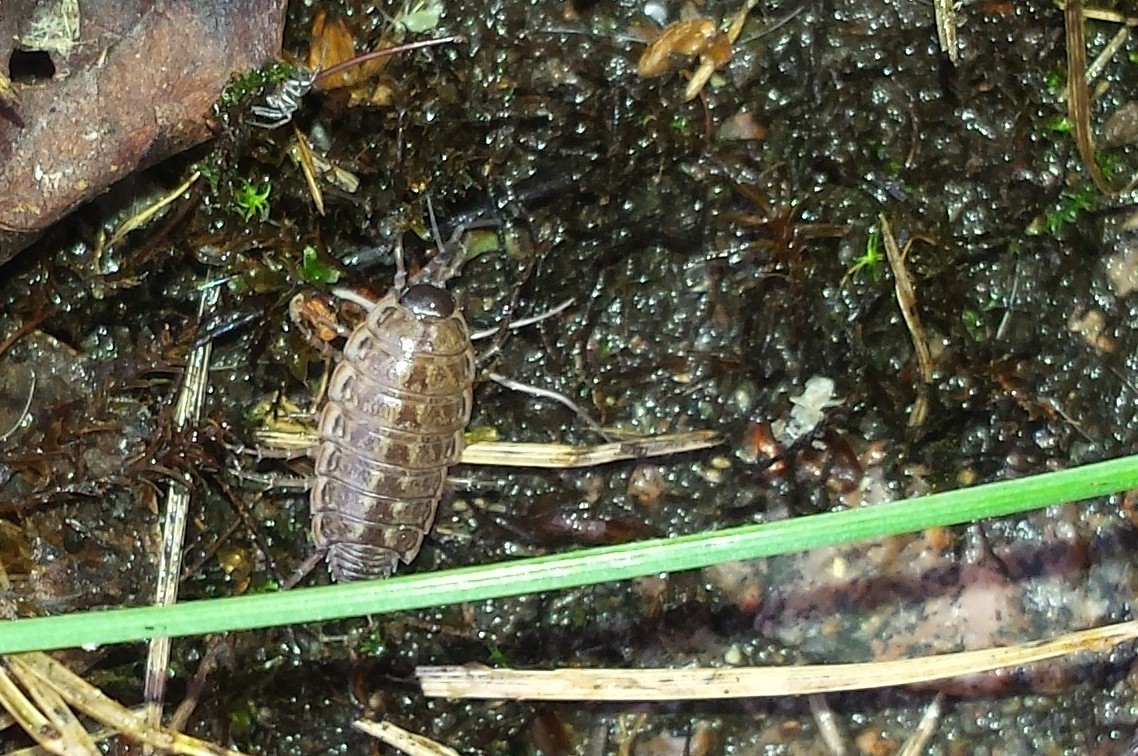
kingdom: Animalia
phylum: Arthropoda
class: Malacostraca
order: Isopoda
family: Philosciidae
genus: Philoscia
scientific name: Philoscia muscorum
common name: Common striped woodlouse
